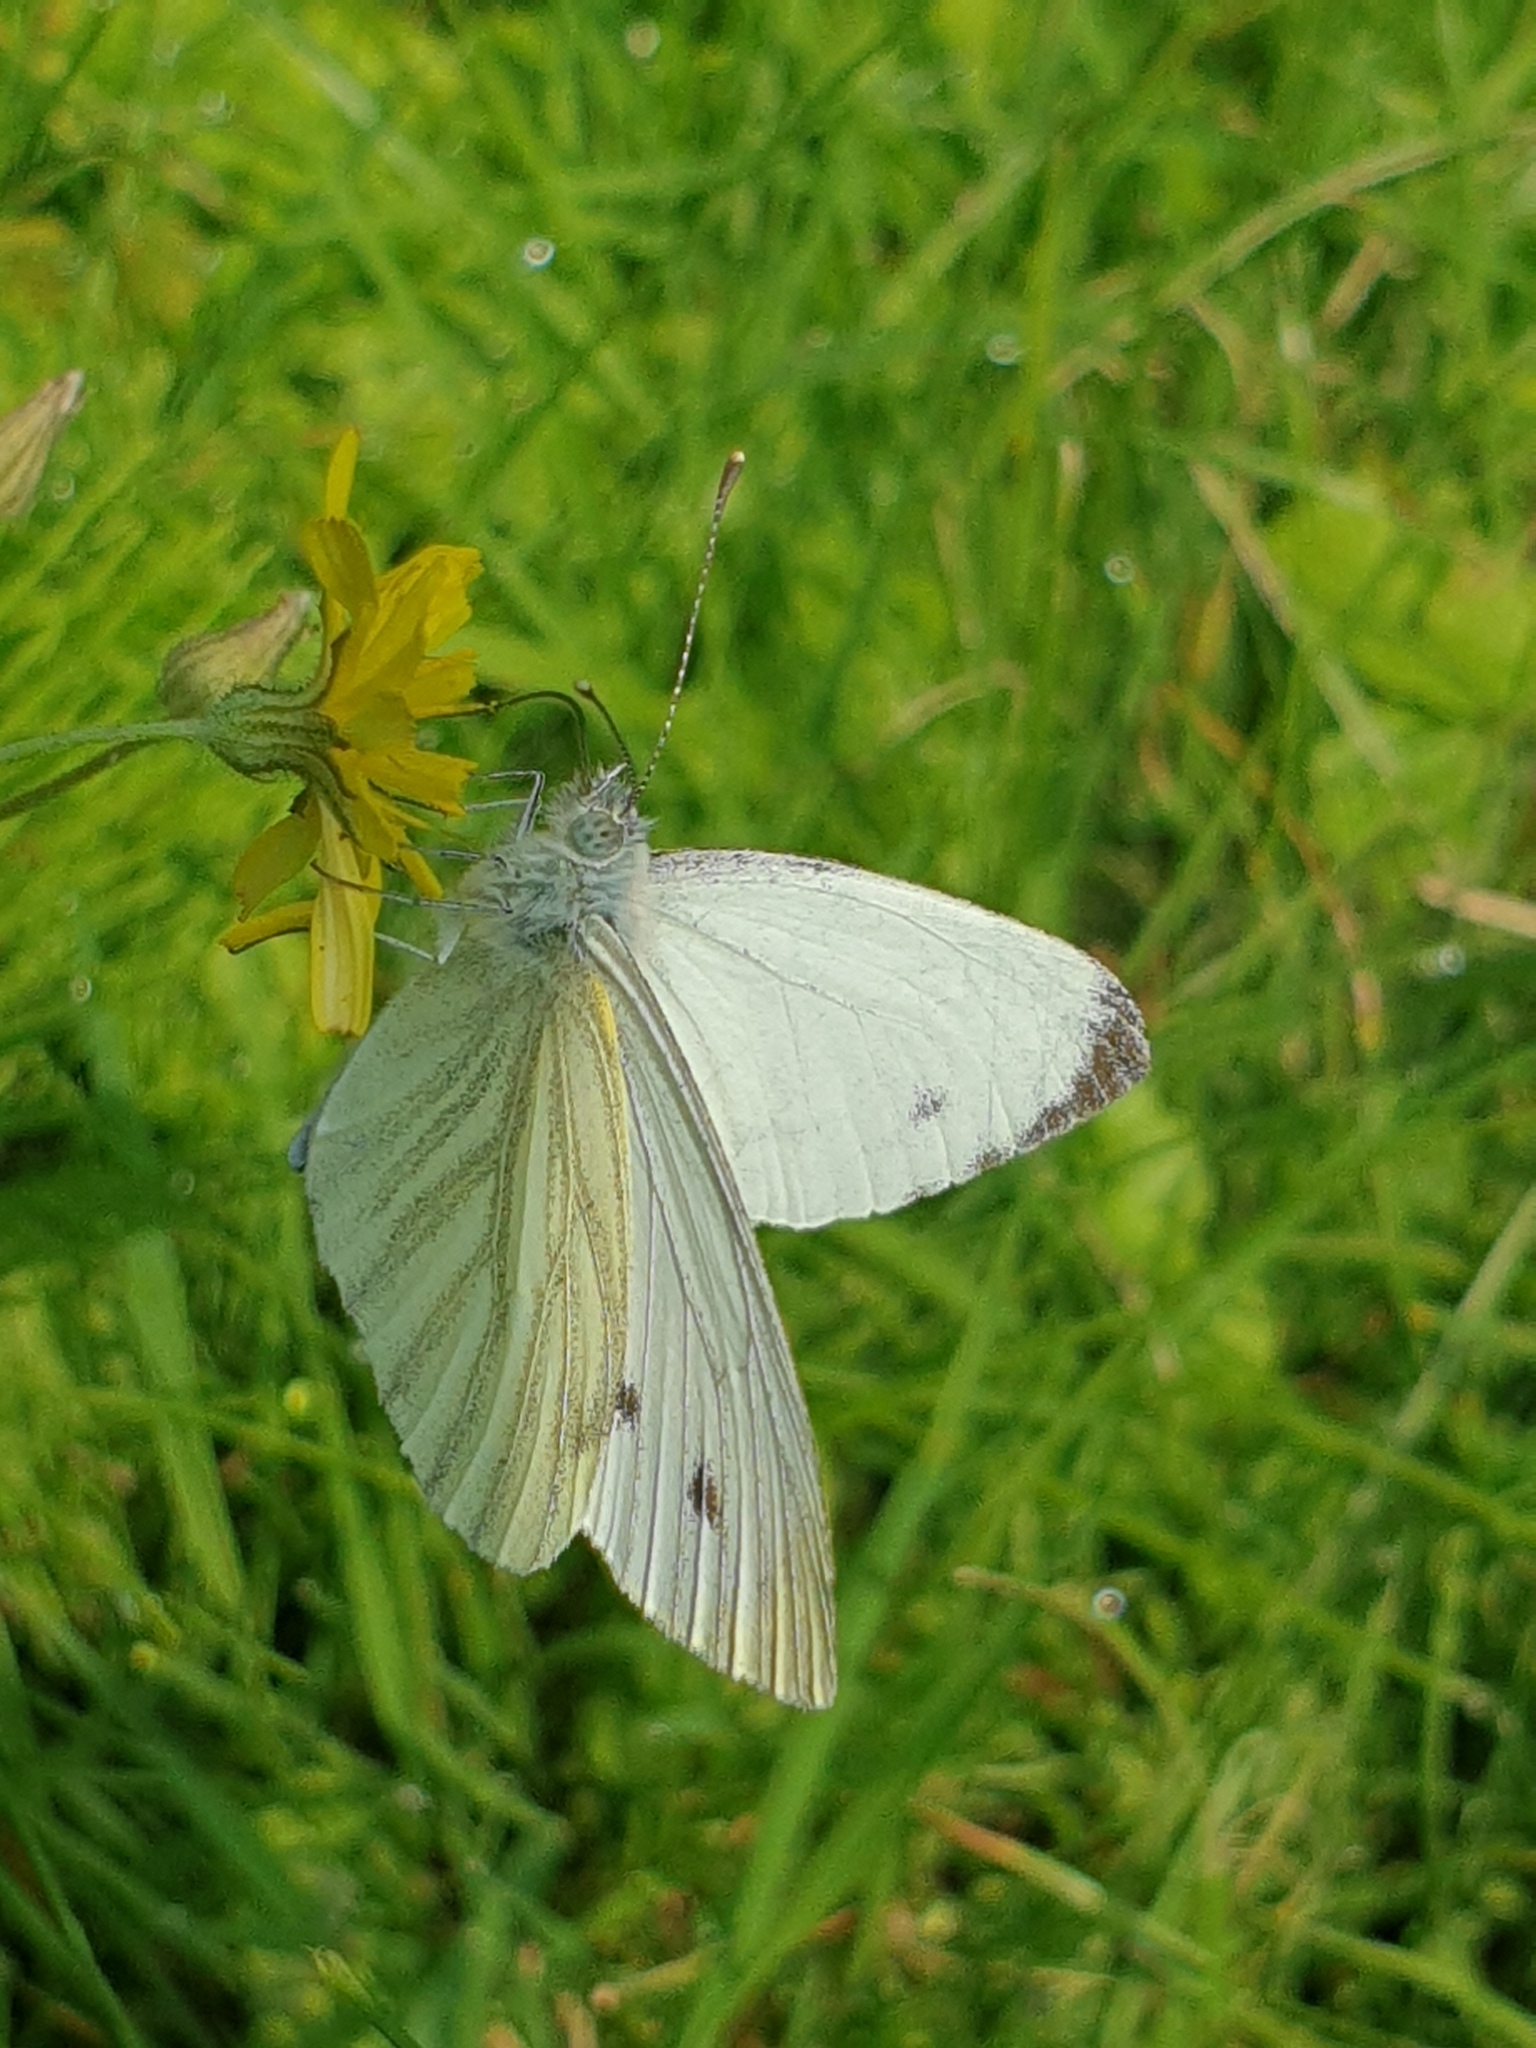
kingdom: Animalia
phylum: Arthropoda
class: Insecta
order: Lepidoptera
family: Pieridae
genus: Pieris
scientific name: Pieris napi
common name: Green-veined white
